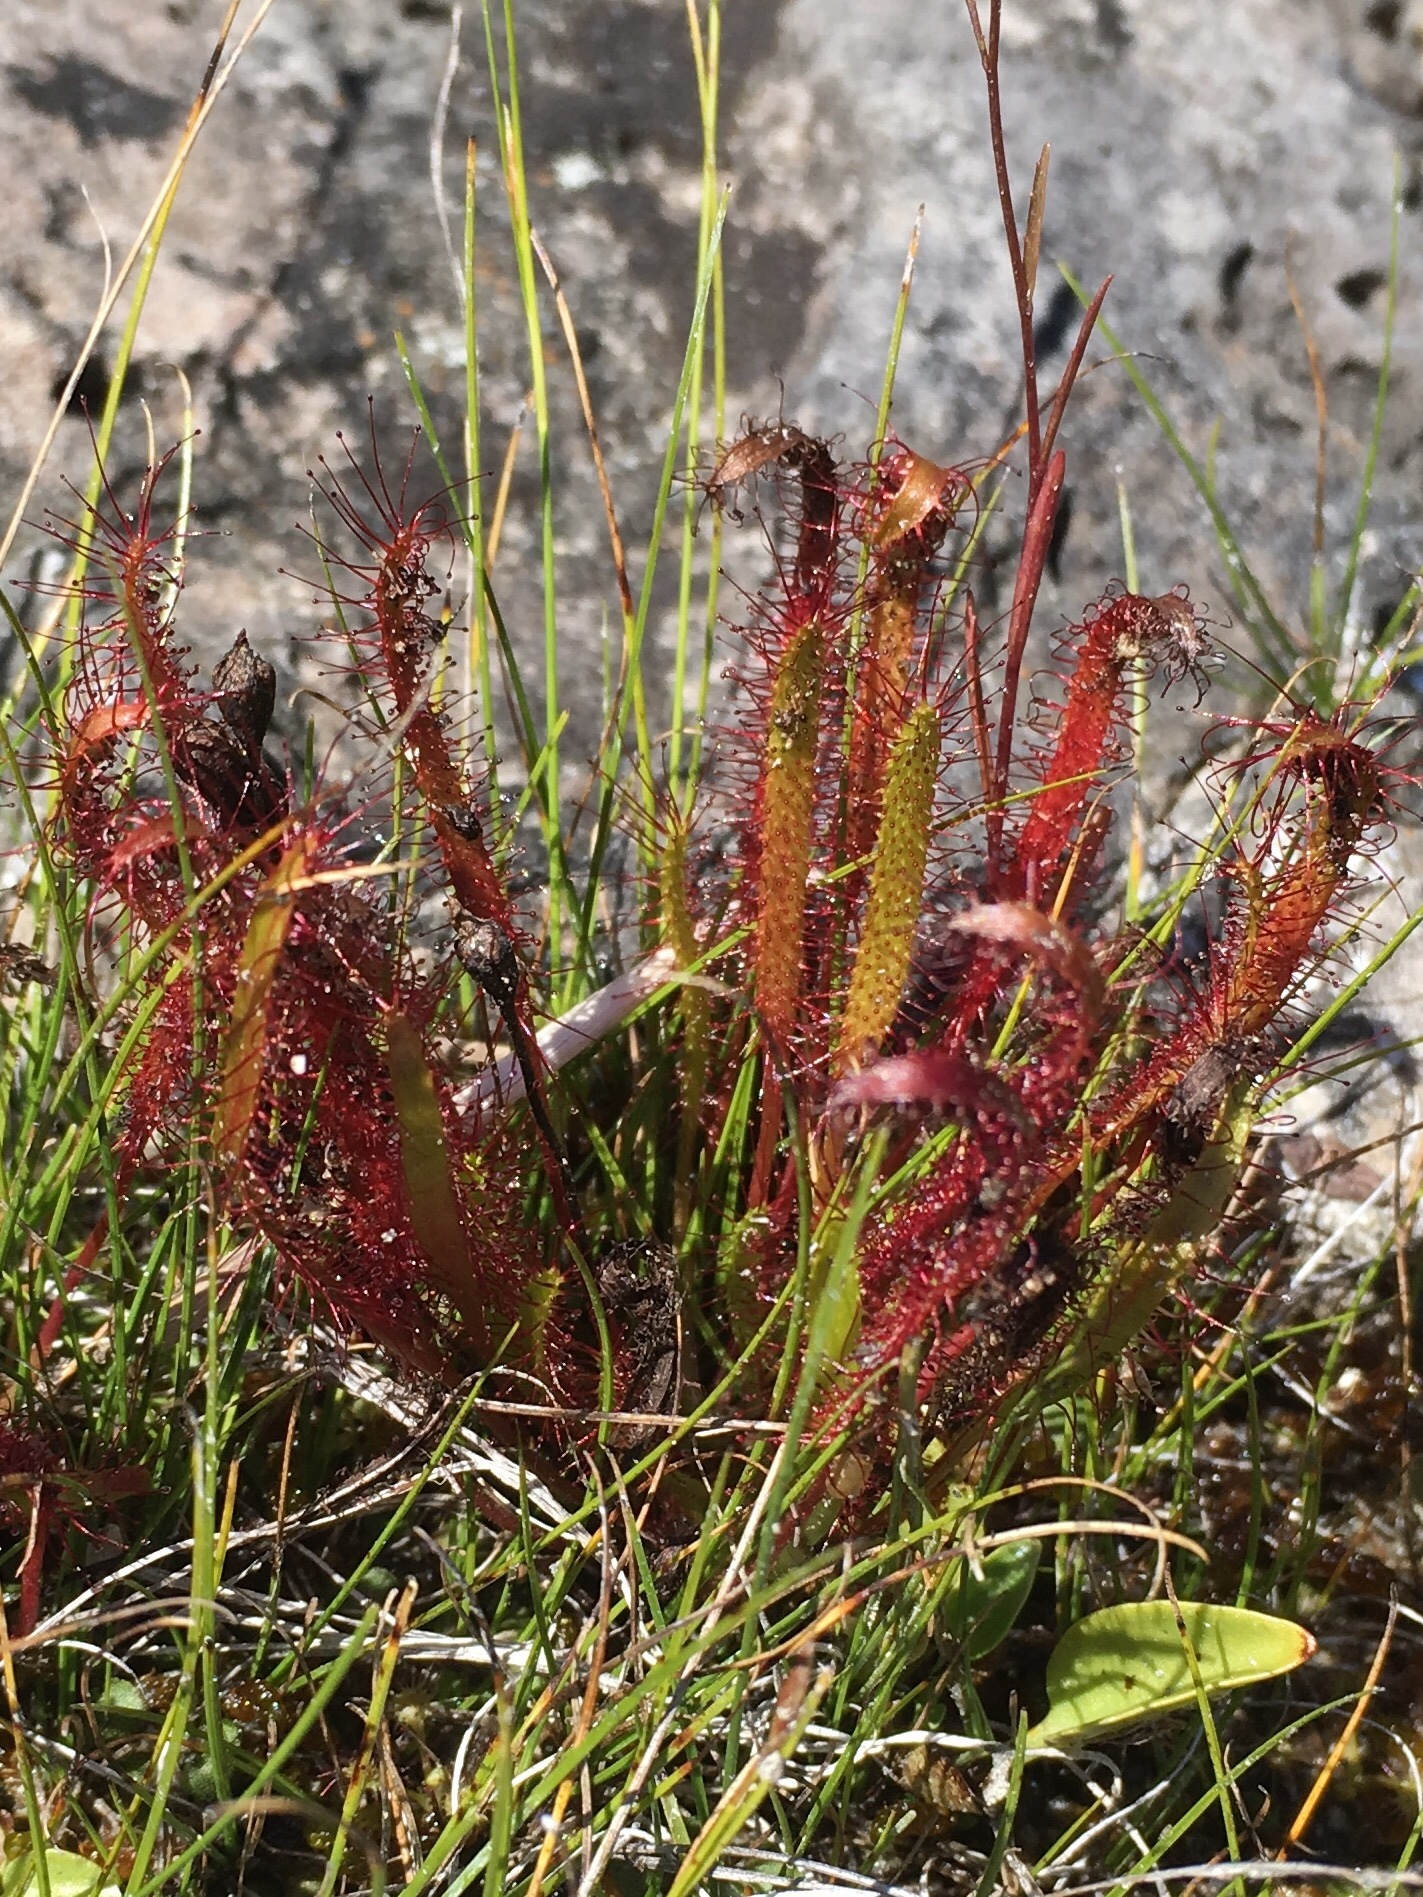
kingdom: Plantae
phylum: Tracheophyta
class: Magnoliopsida
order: Caryophyllales
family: Droseraceae
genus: Drosera
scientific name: Drosera linearis
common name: Linear-leaved sundew
